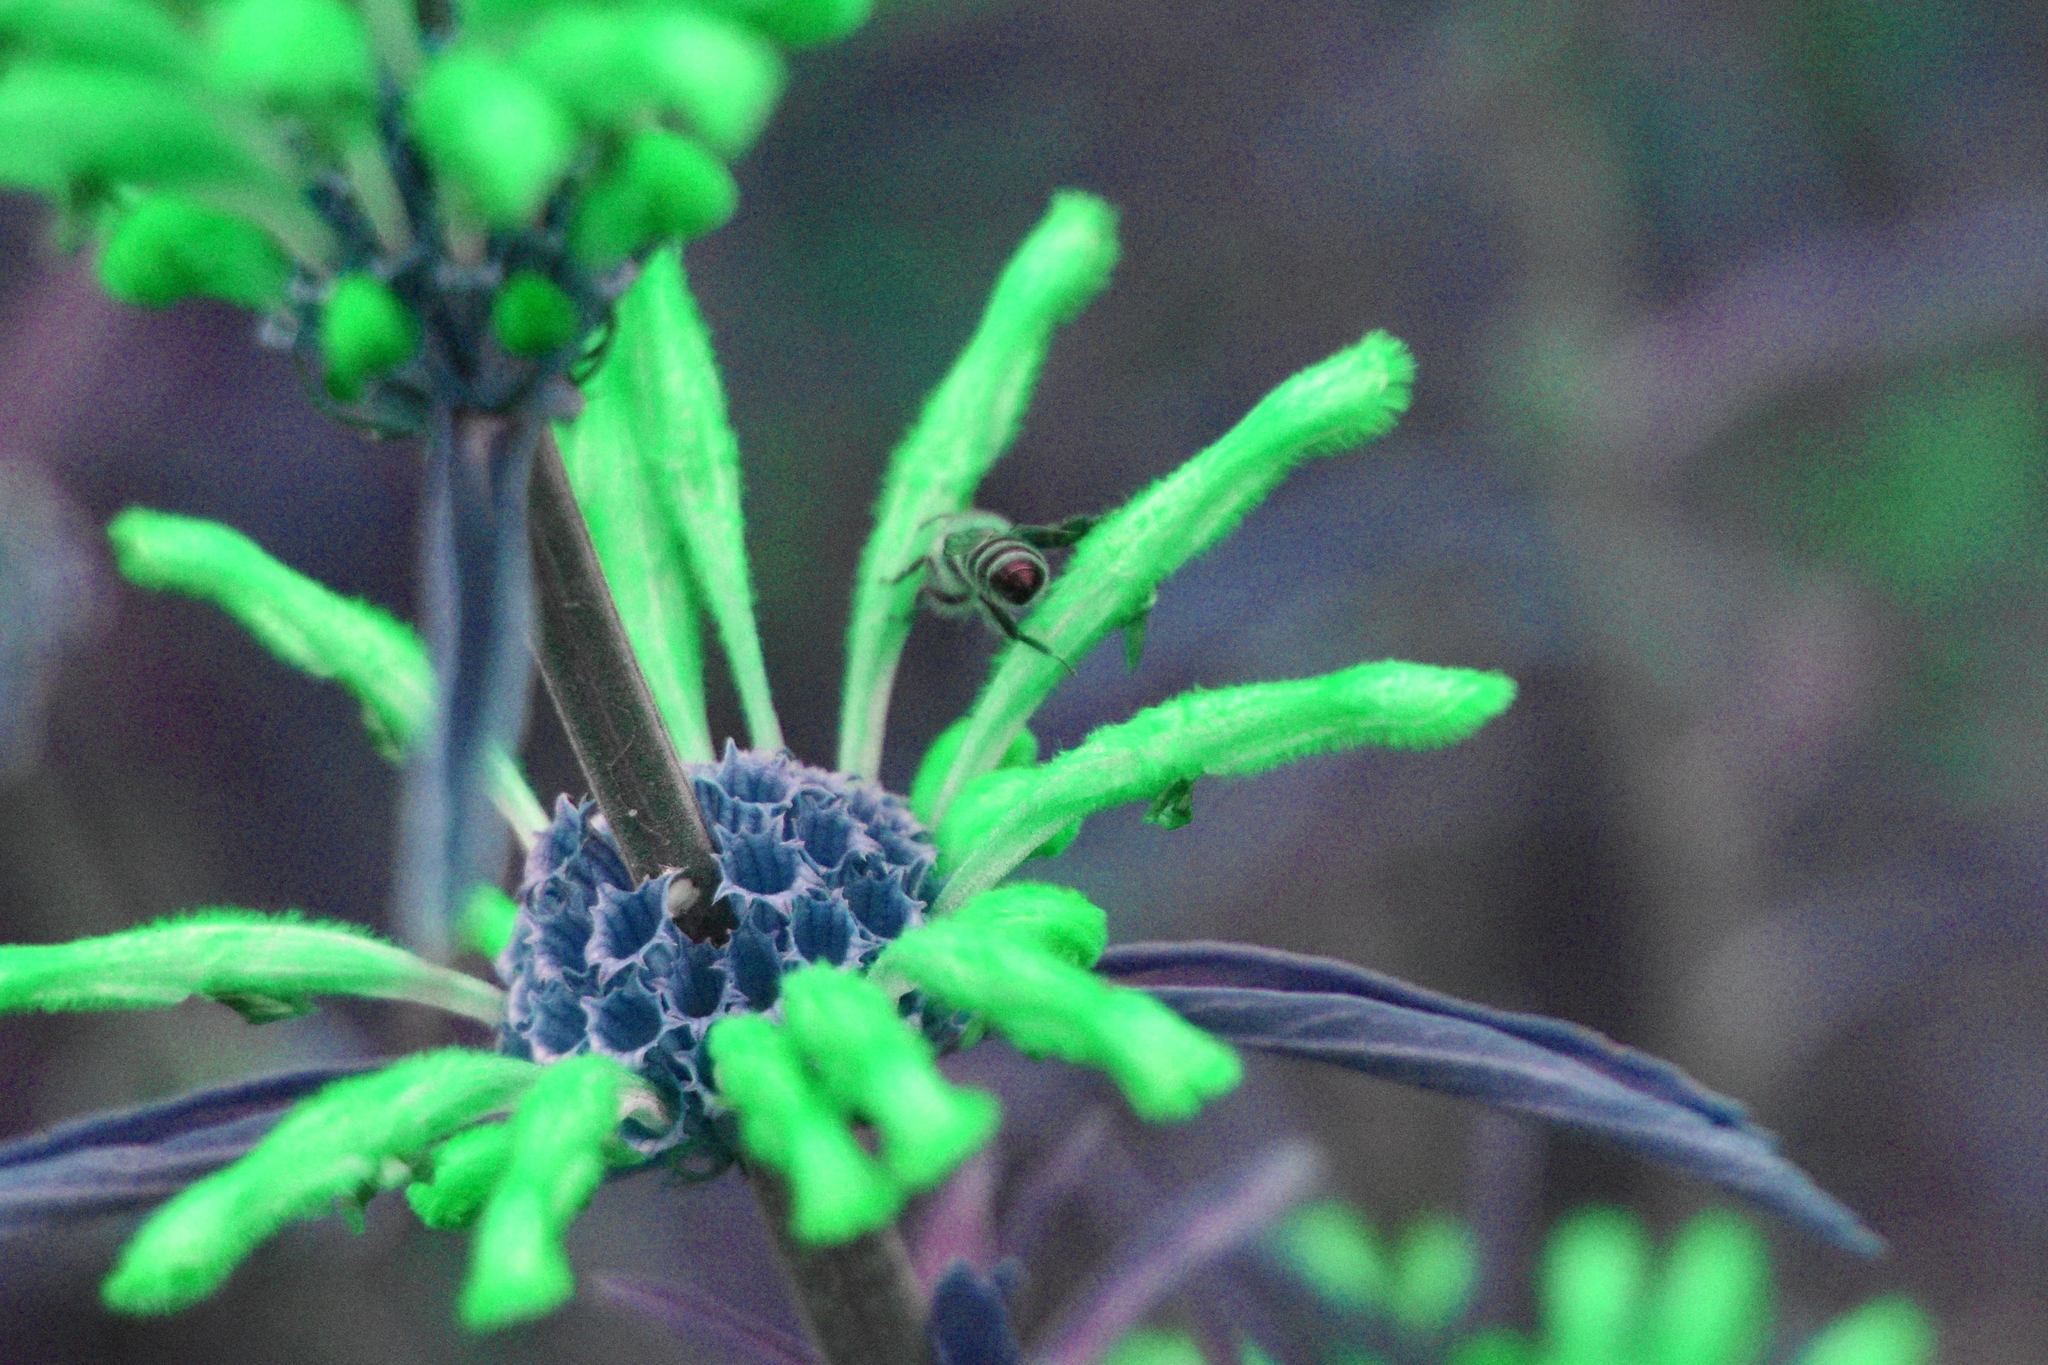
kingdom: Animalia
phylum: Arthropoda
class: Insecta
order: Hymenoptera
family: Apidae
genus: Apis
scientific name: Apis mellifera
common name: Honey bee
